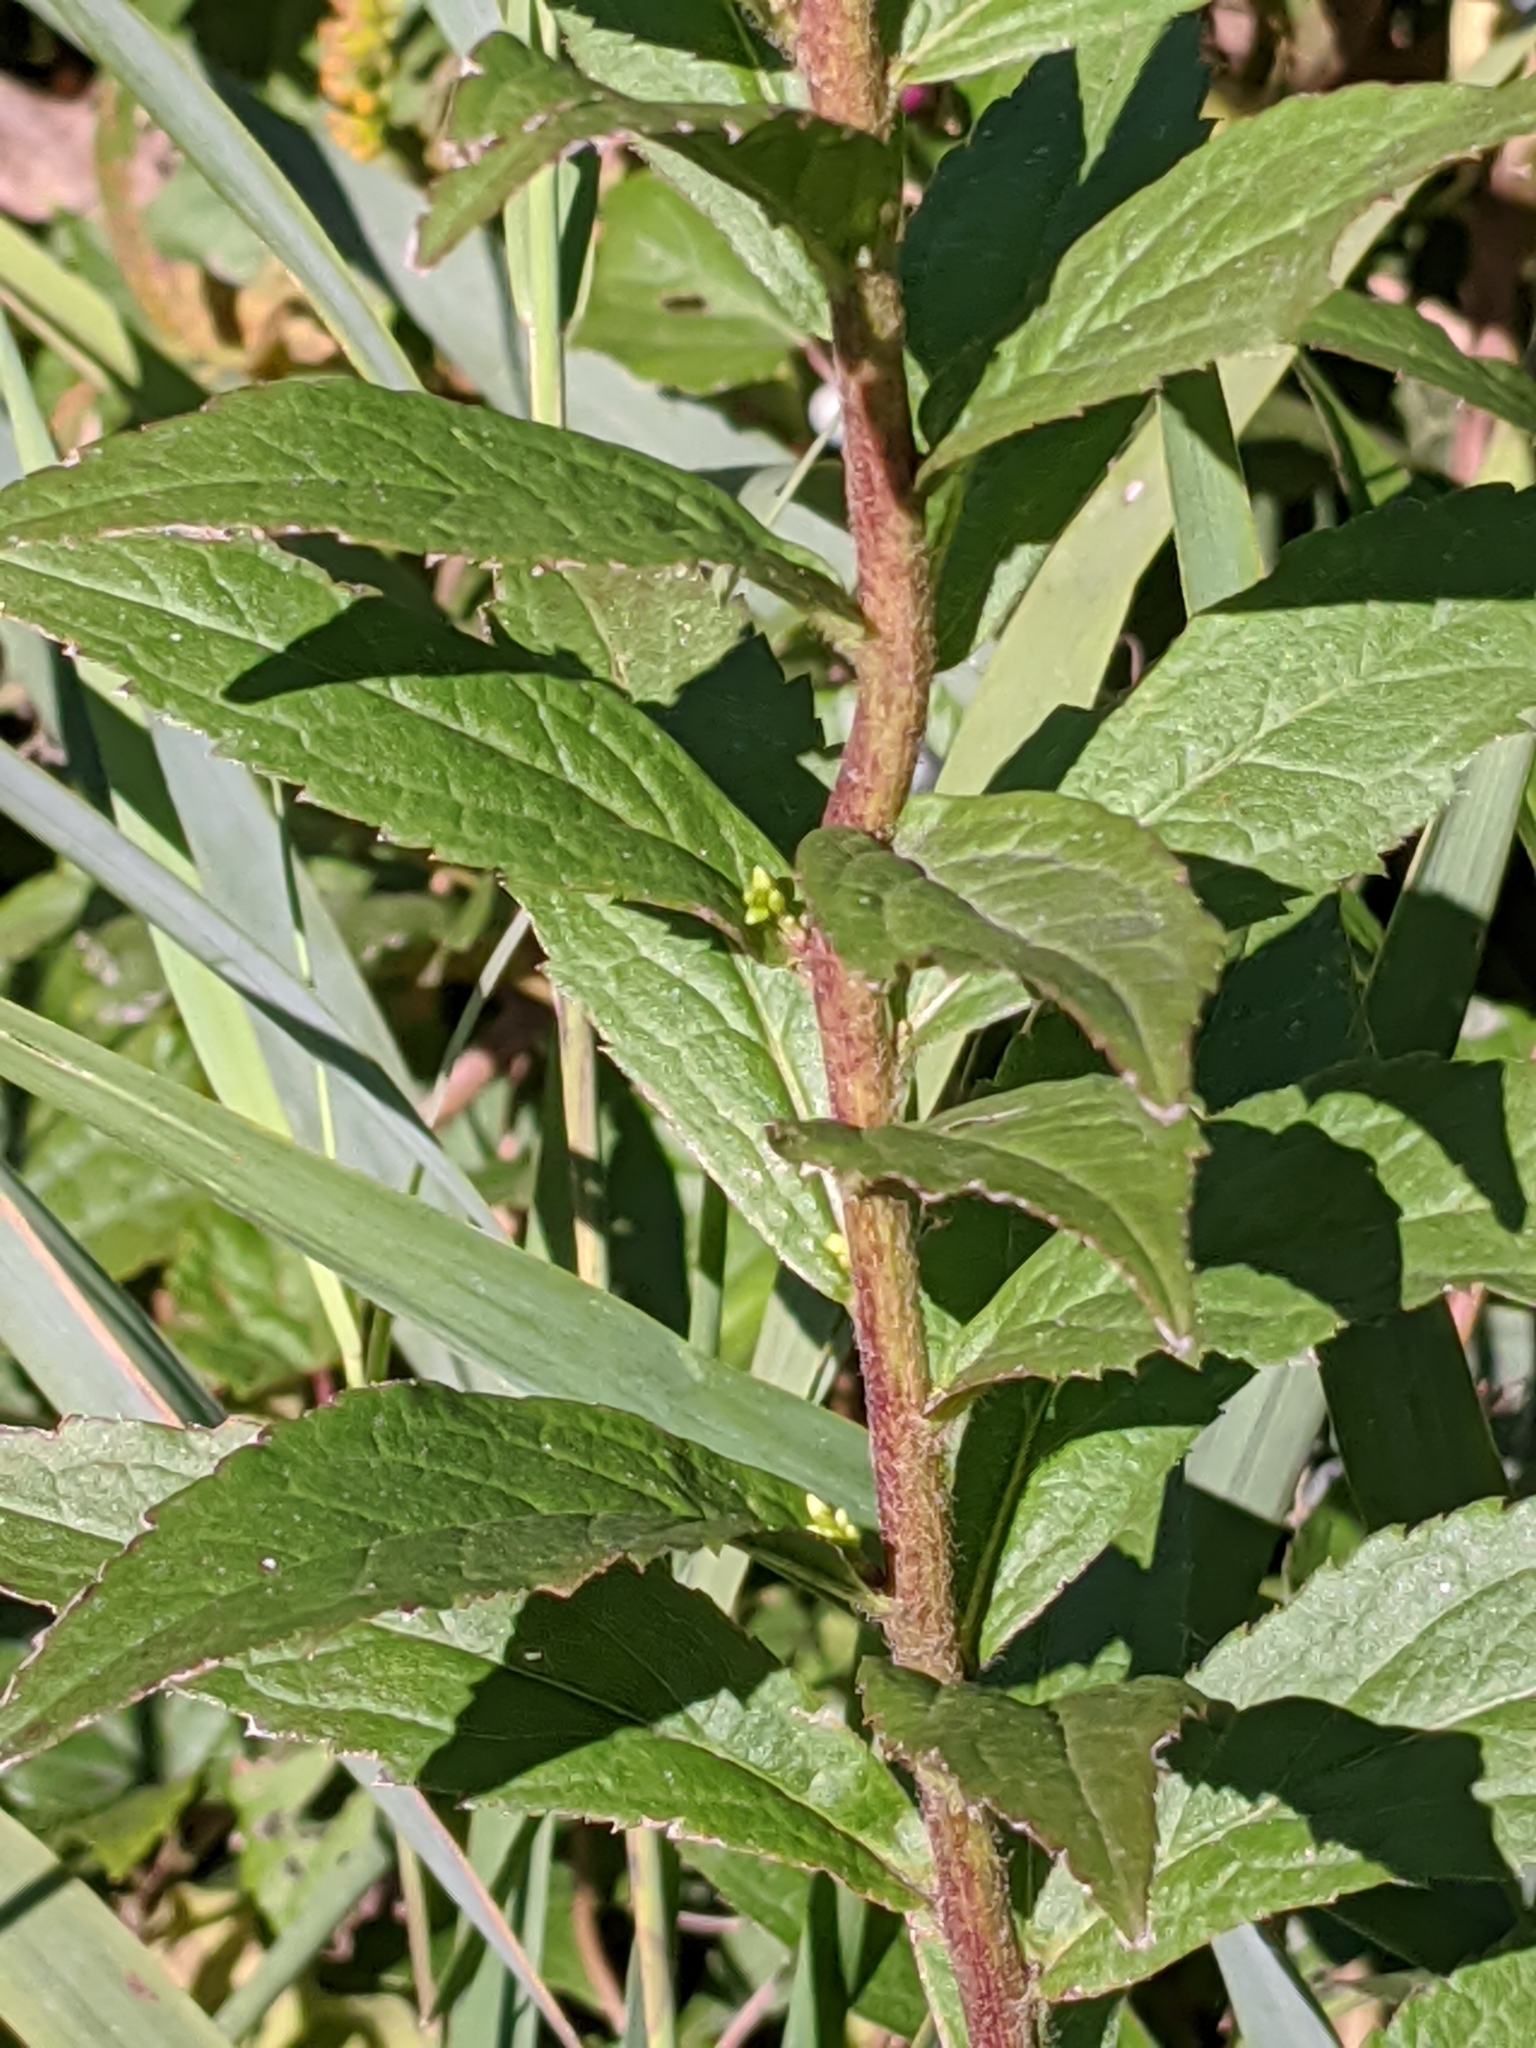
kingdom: Plantae
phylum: Tracheophyta
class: Magnoliopsida
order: Asterales
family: Asteraceae
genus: Solidago
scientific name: Solidago rugosa
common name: Rough-stemmed goldenrod
